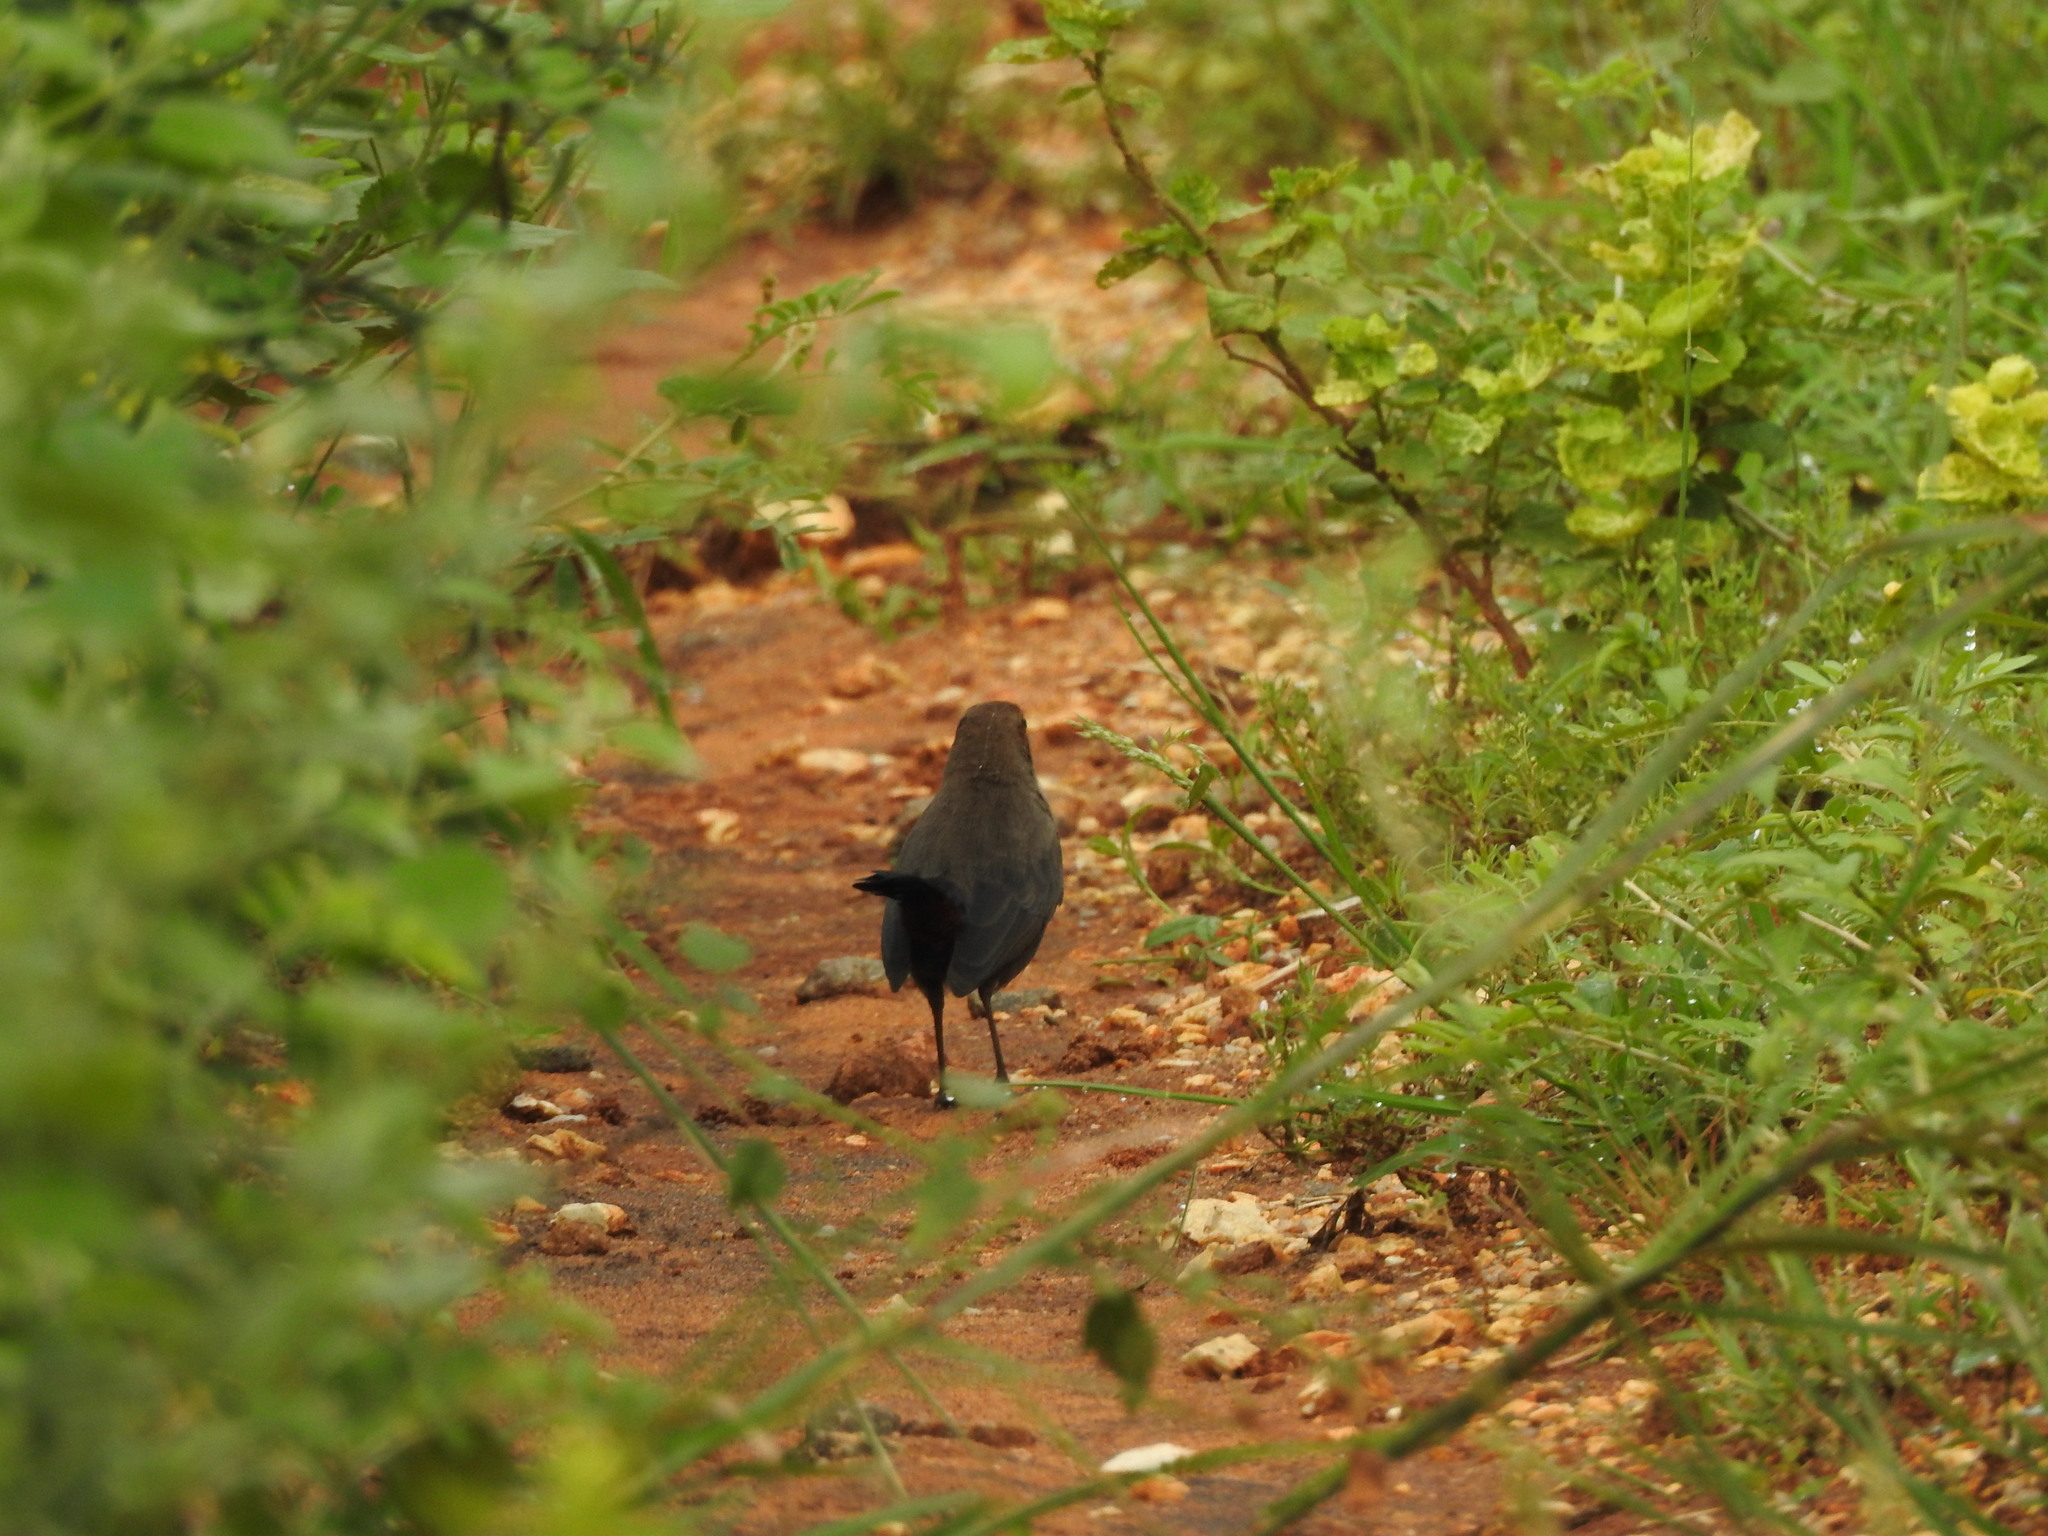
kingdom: Animalia
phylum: Chordata
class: Aves
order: Passeriformes
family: Muscicapidae
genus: Saxicoloides
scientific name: Saxicoloides fulicatus
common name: Indian robin
